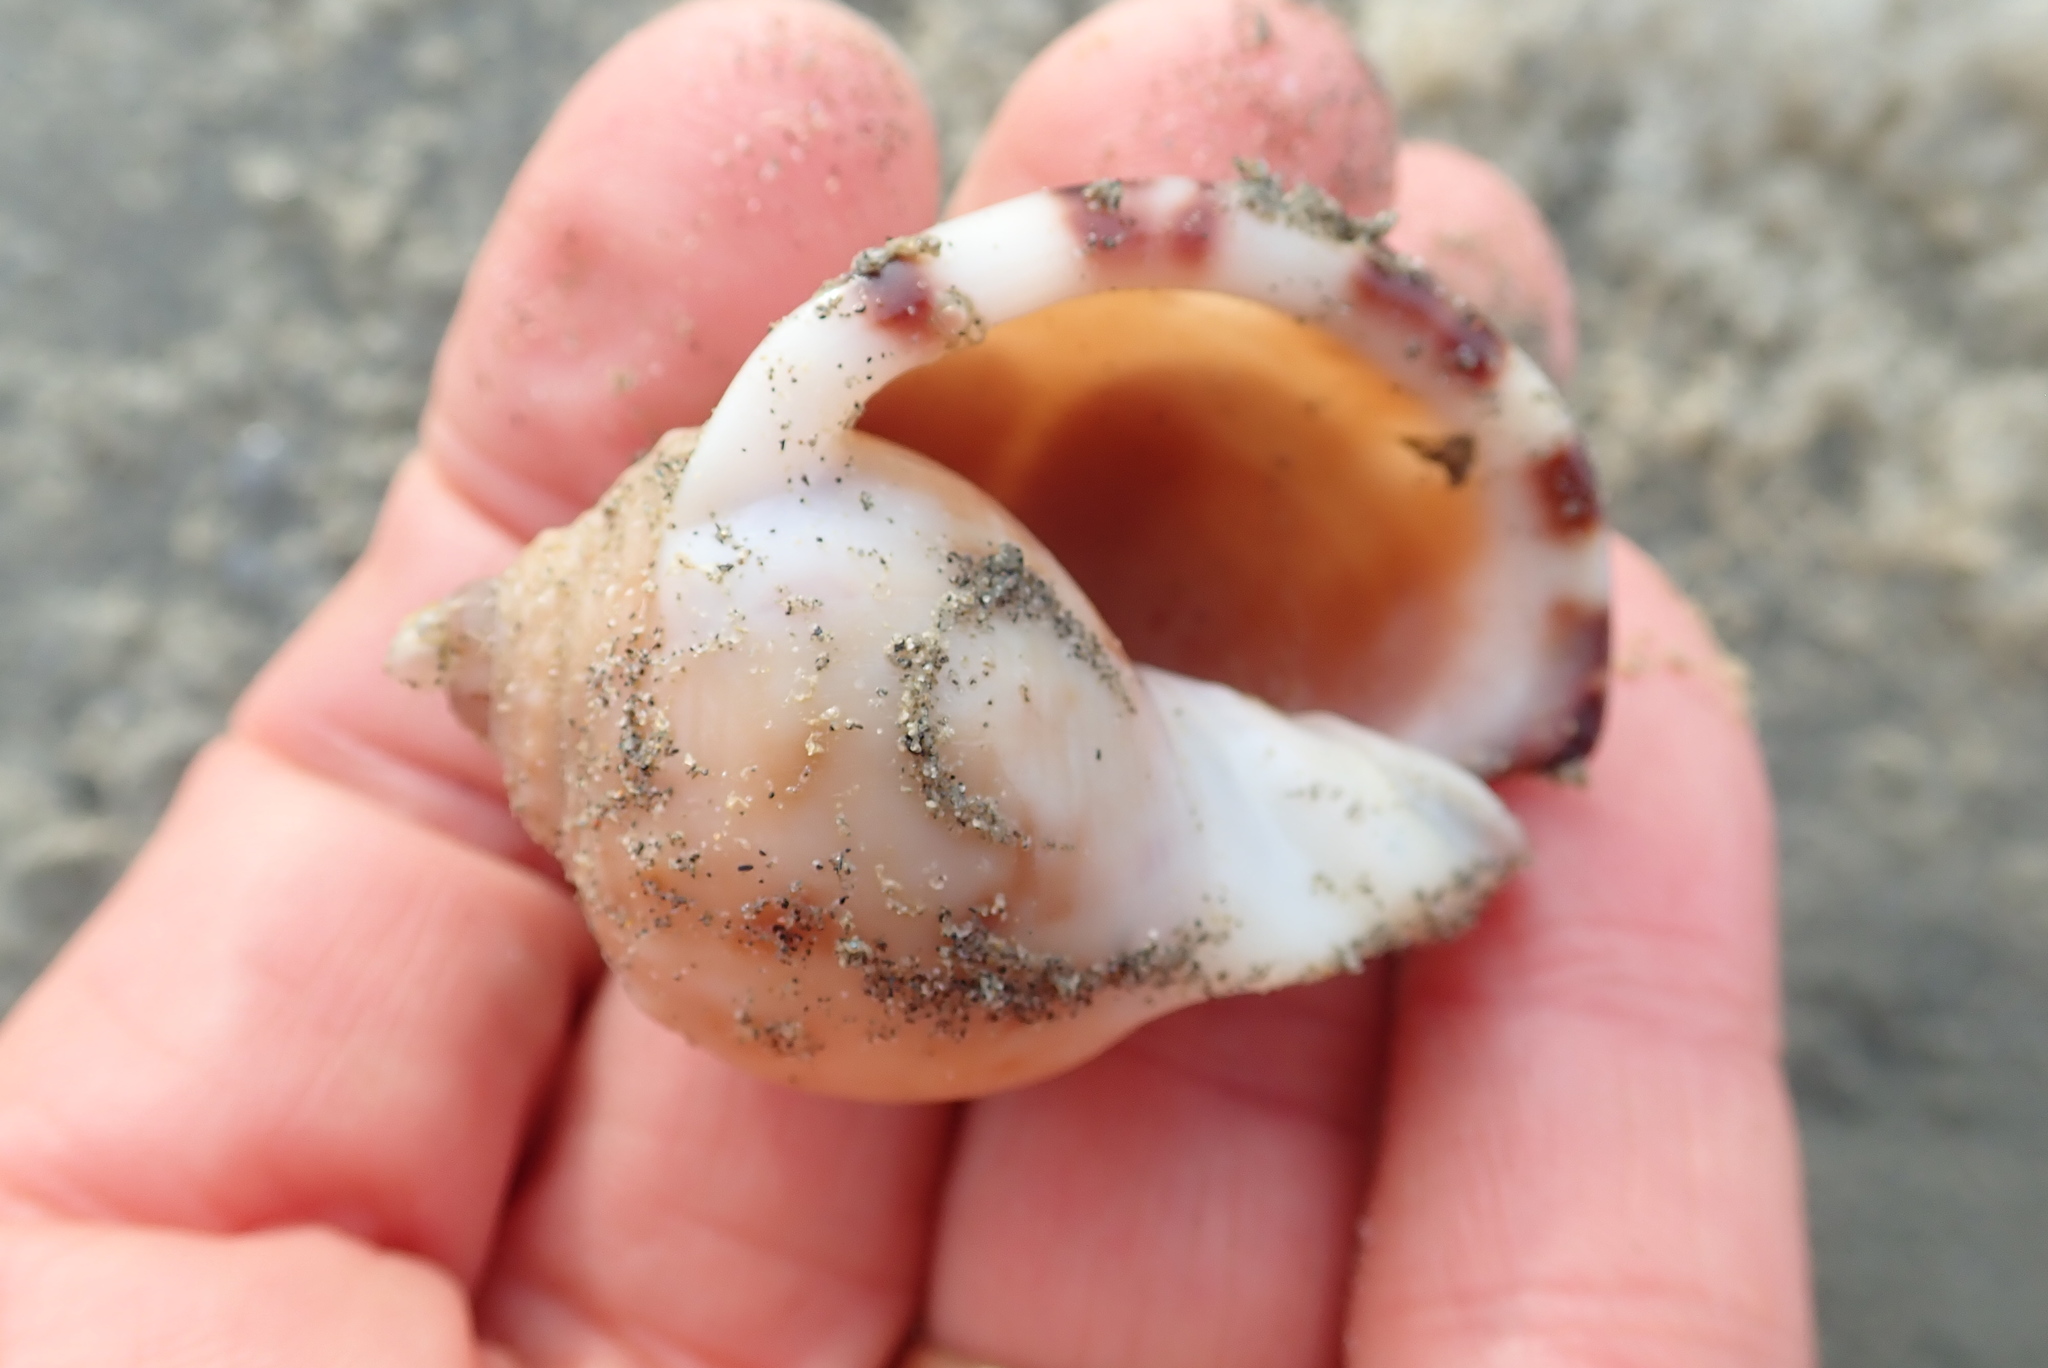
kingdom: Animalia
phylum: Mollusca
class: Gastropoda
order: Littorinimorpha
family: Cassidae
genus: Semicassis
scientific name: Semicassis pyrum
